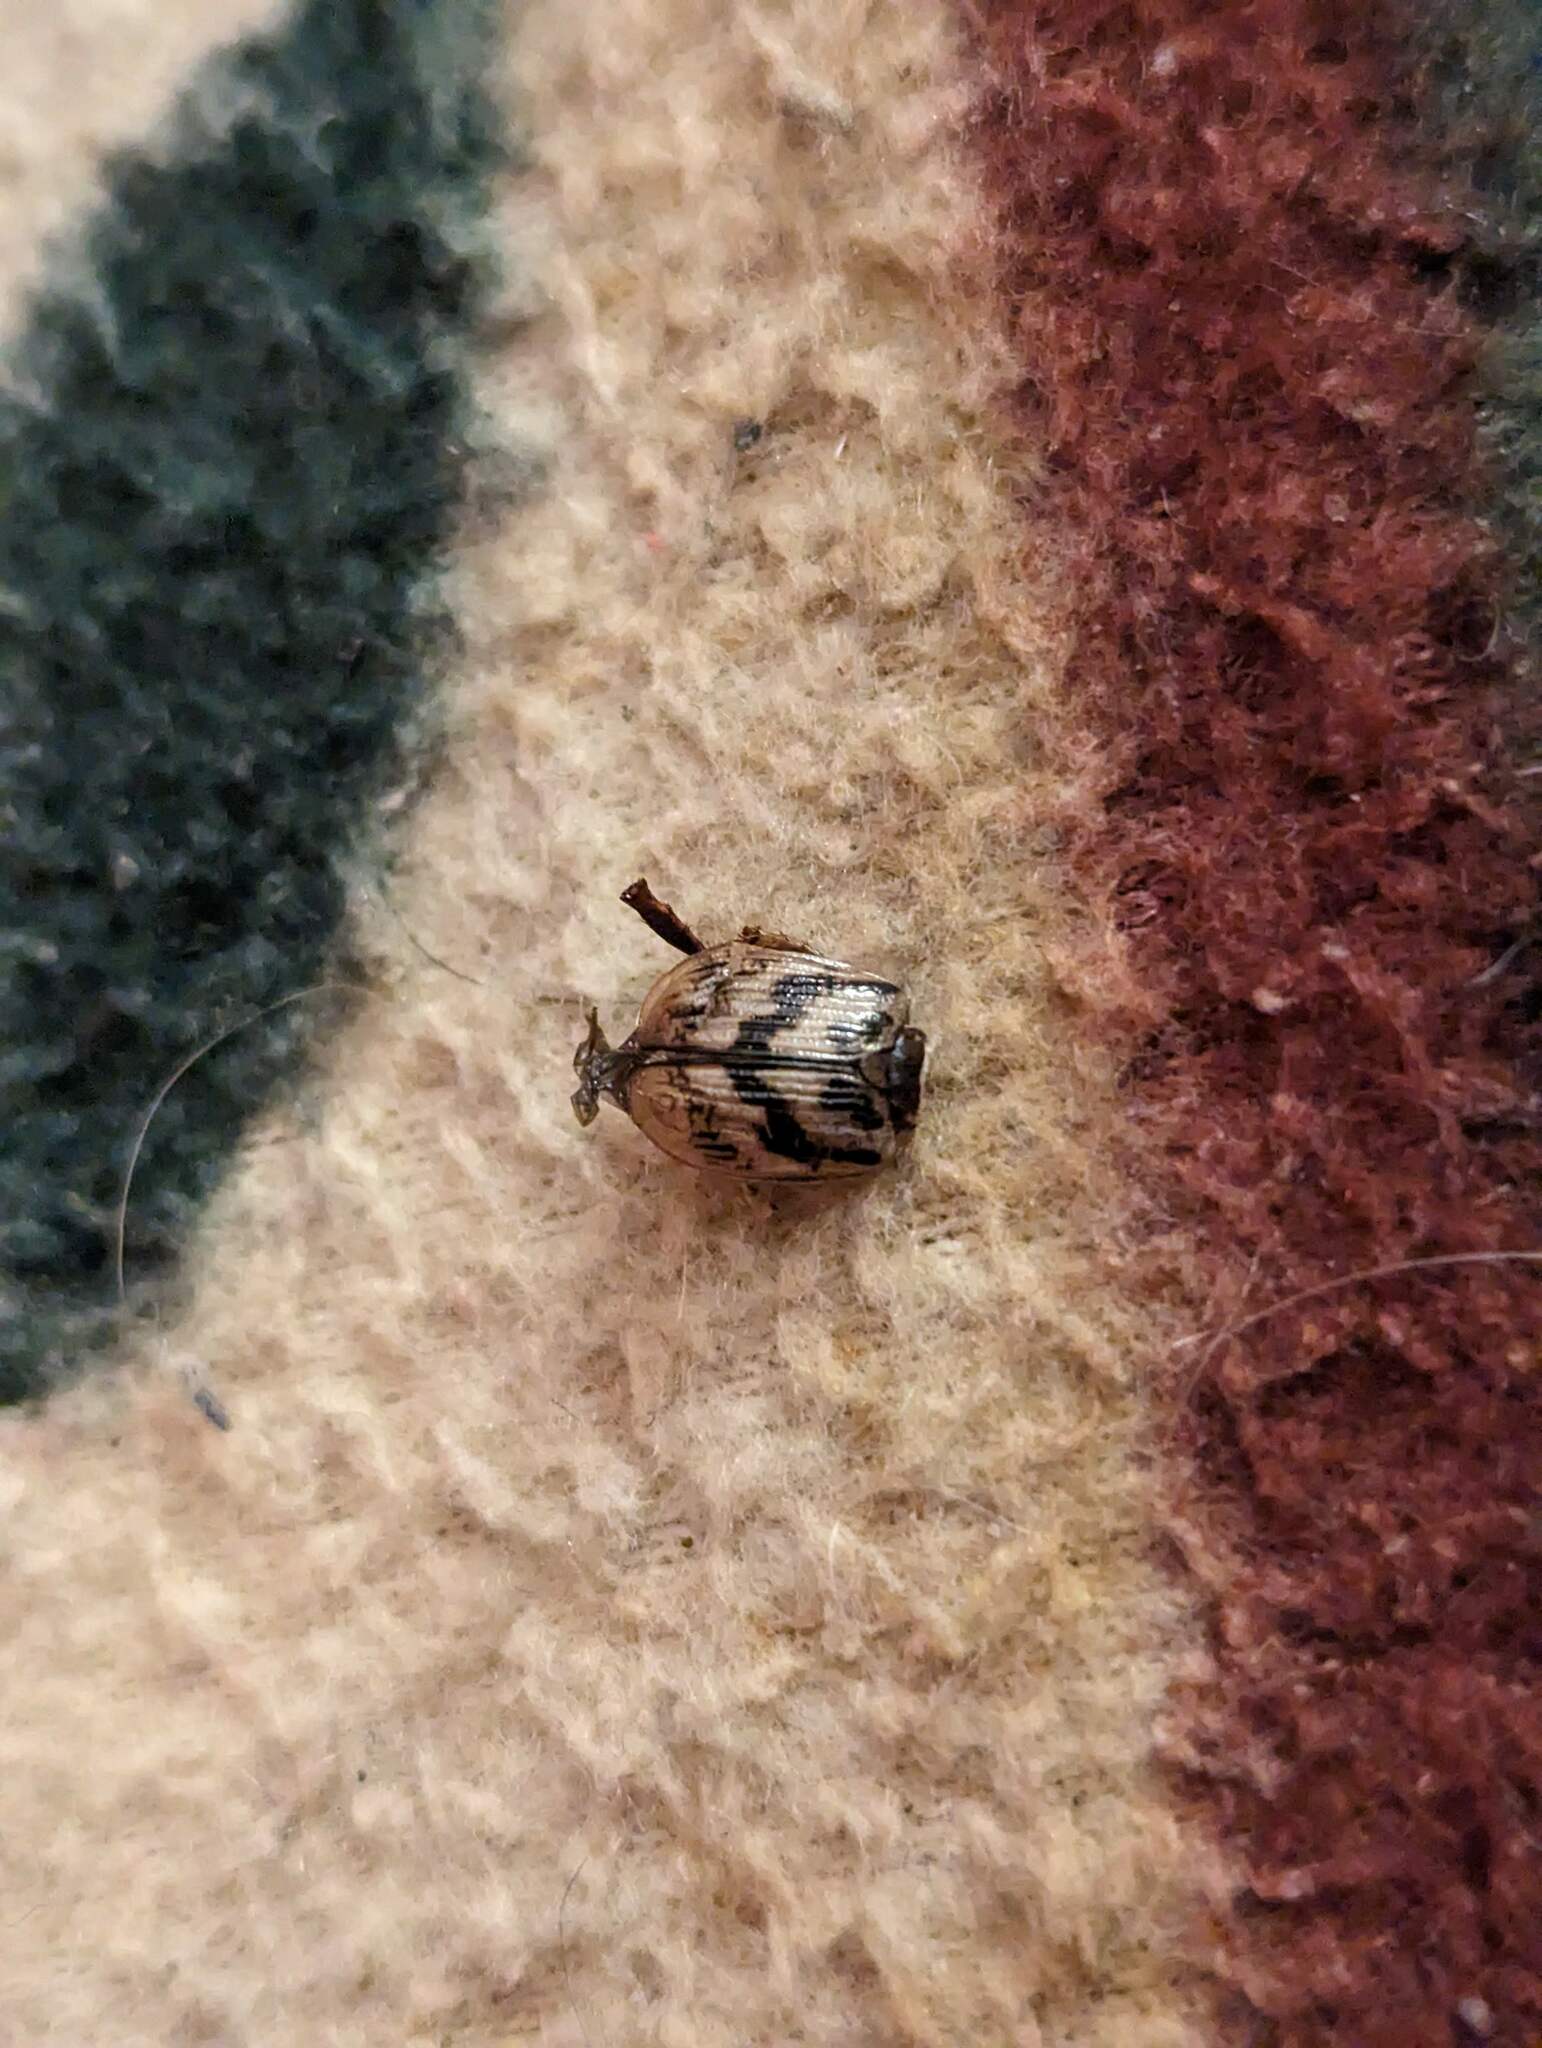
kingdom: Animalia
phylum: Arthropoda
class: Insecta
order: Coleoptera
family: Scarabaeidae
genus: Exomala
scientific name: Exomala orientalis
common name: Oriental beetle
